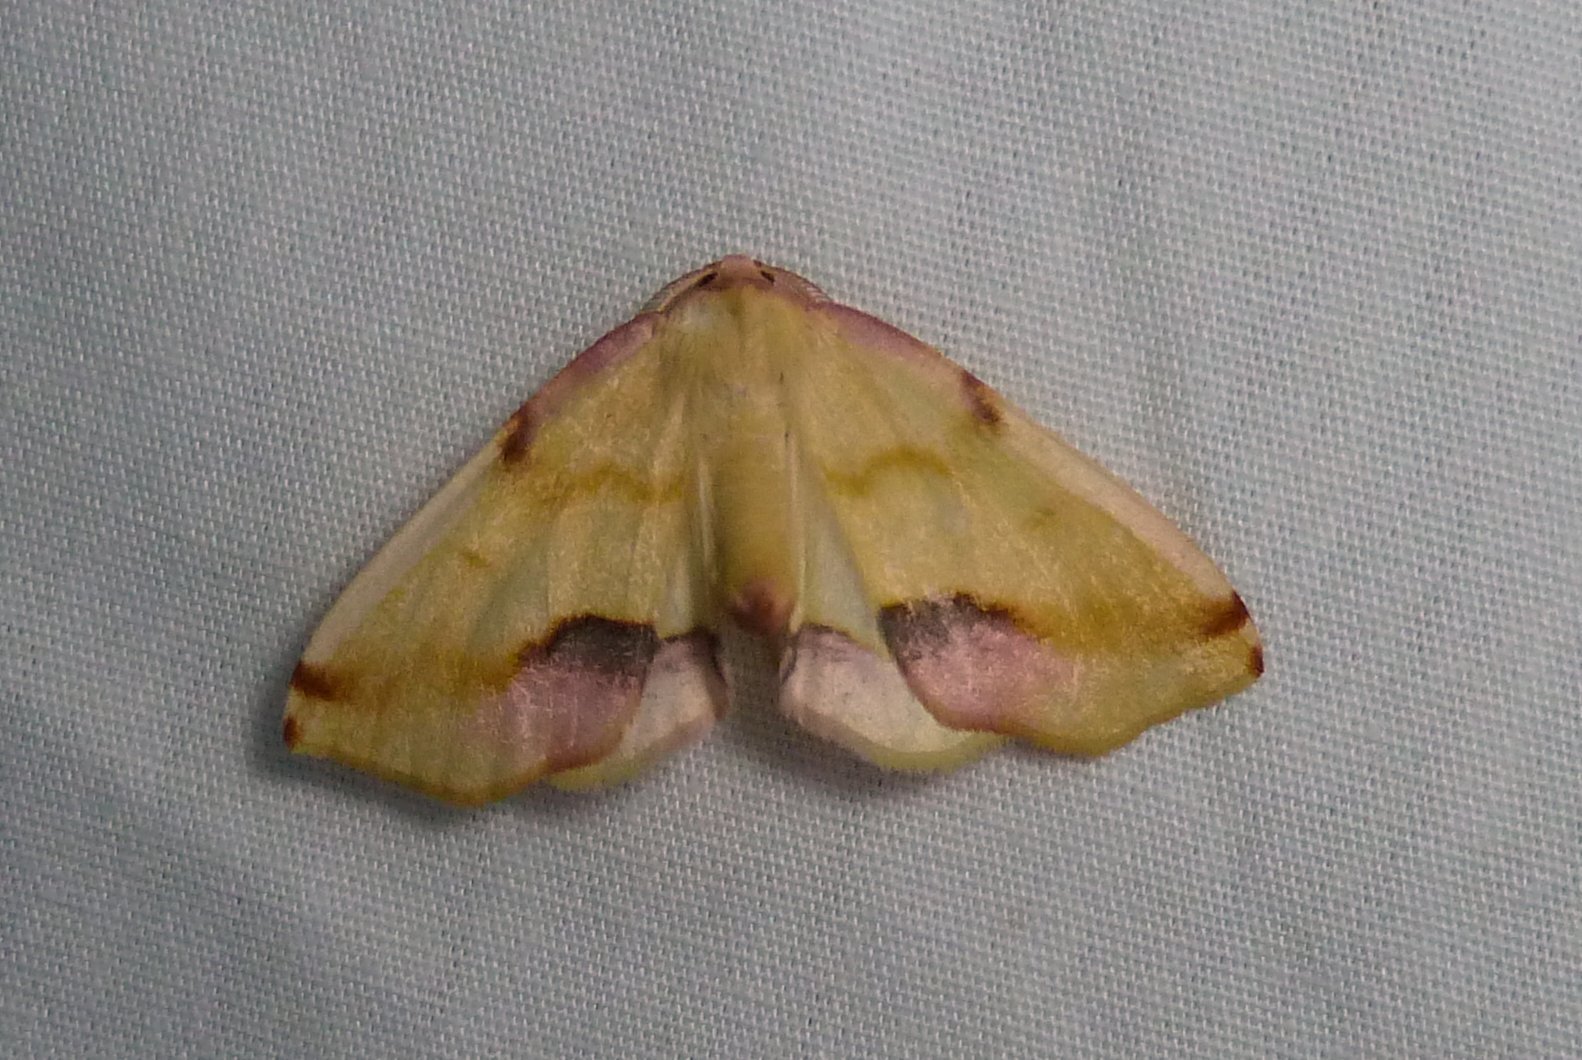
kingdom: Animalia
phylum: Arthropoda
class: Insecta
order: Lepidoptera
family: Geometridae
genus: Plagodis
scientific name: Plagodis serinaria
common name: Lemon plagodis
